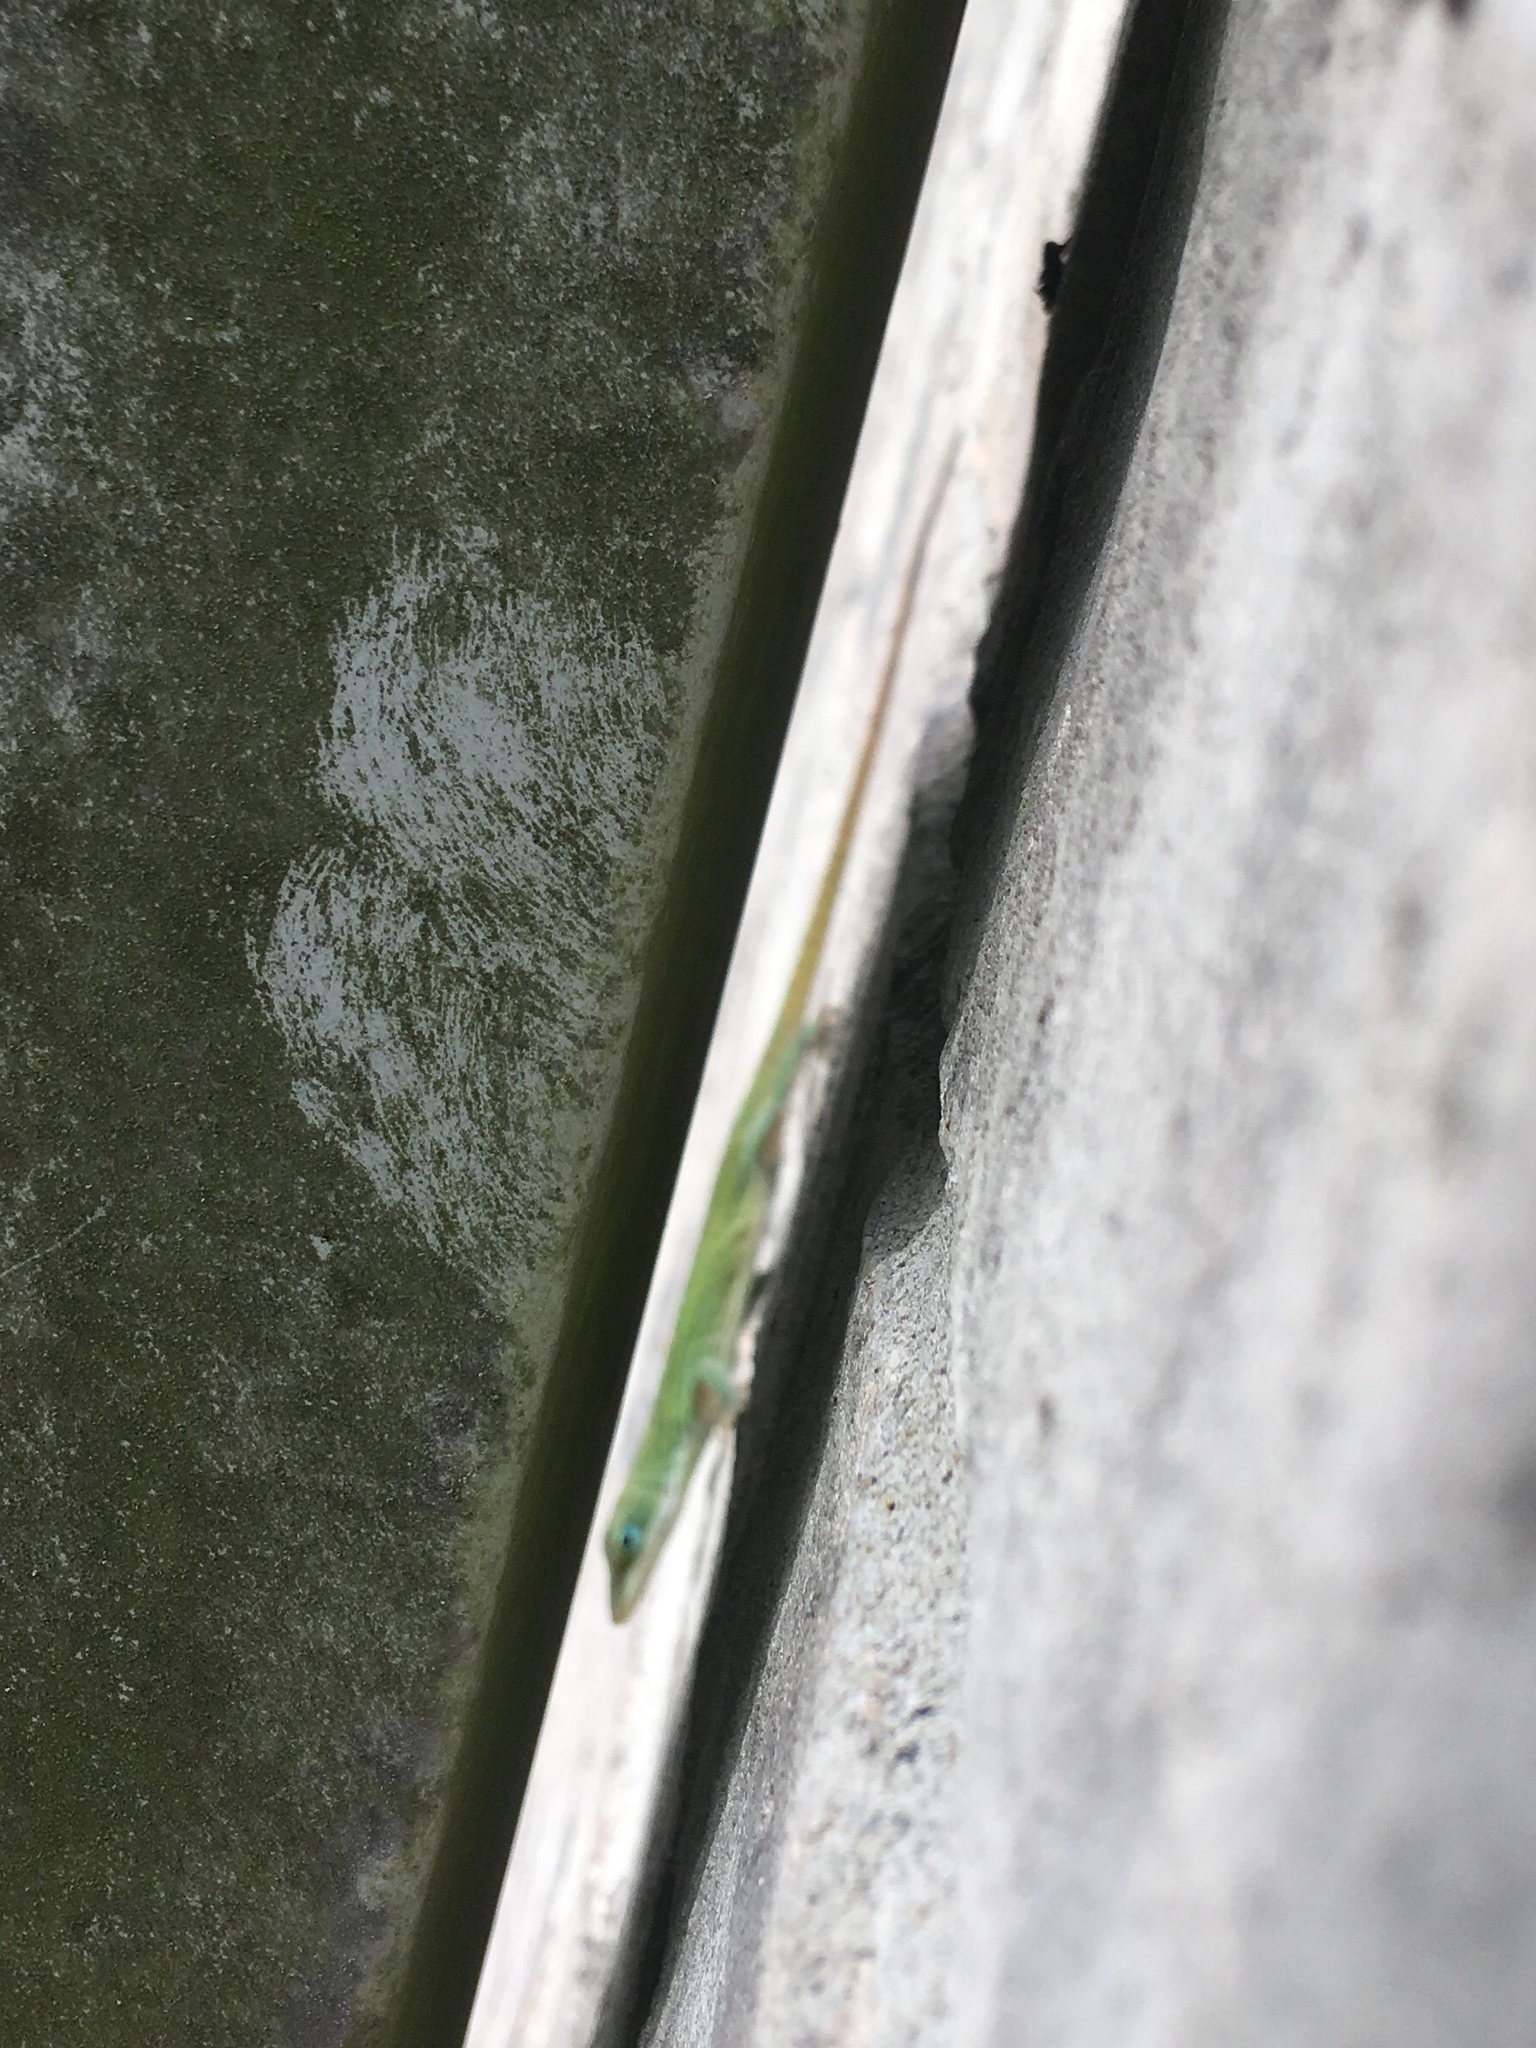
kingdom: Animalia
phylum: Chordata
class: Squamata
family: Dactyloidae
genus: Anolis
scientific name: Anolis carolinensis
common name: Green anole
